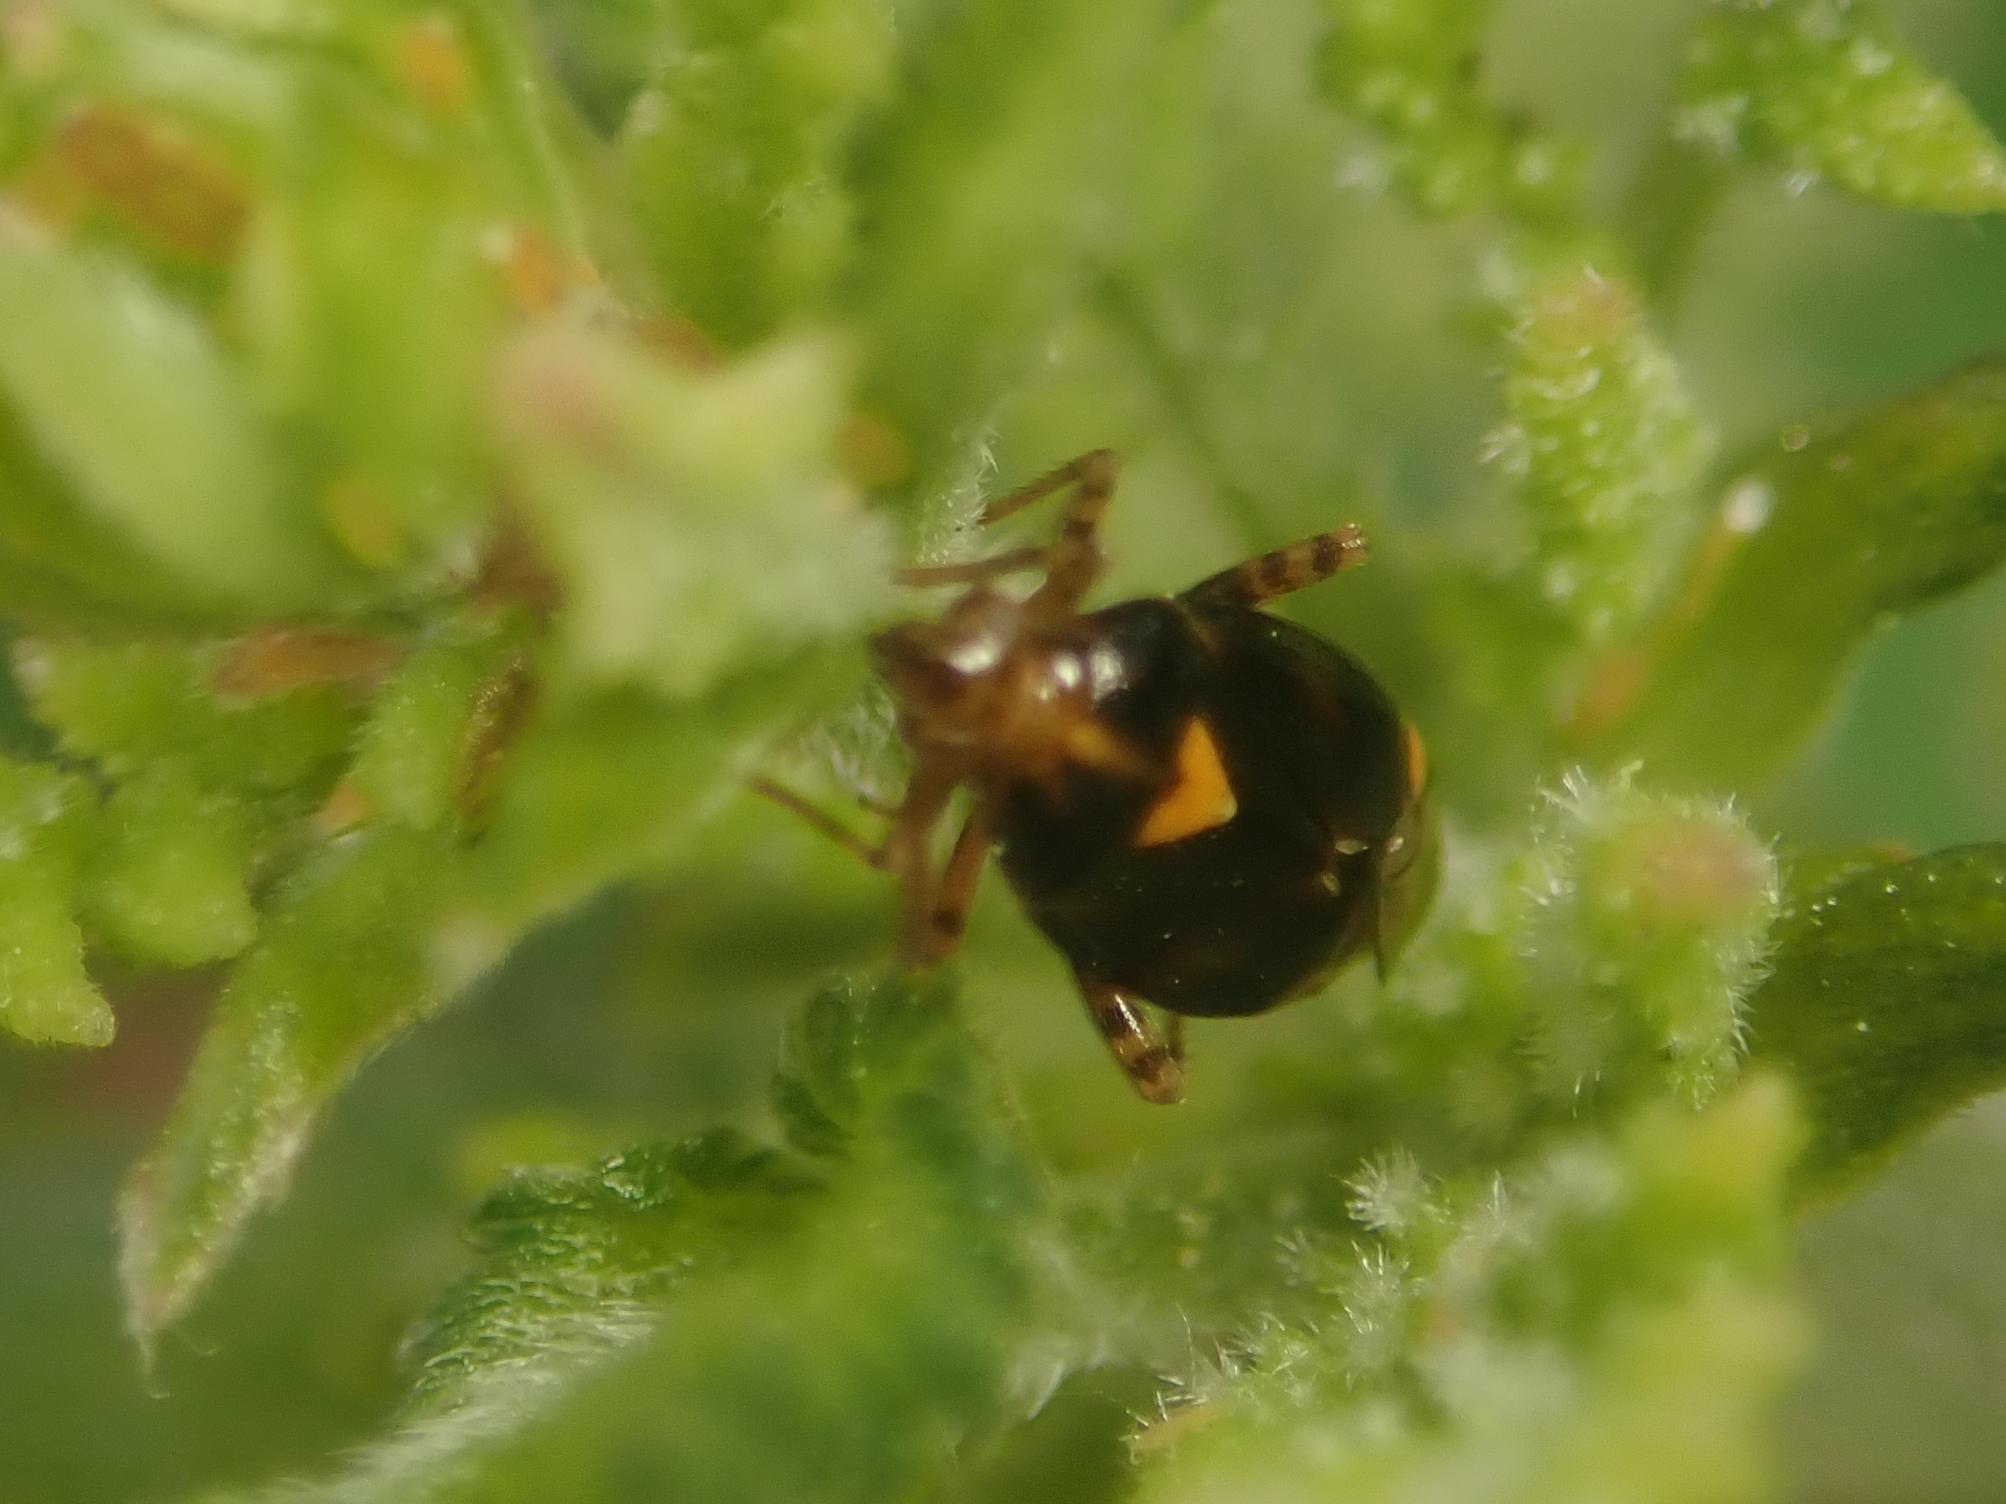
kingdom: Animalia
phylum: Arthropoda
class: Insecta
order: Hemiptera
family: Miridae
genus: Liocoris
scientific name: Liocoris tripustulatus
